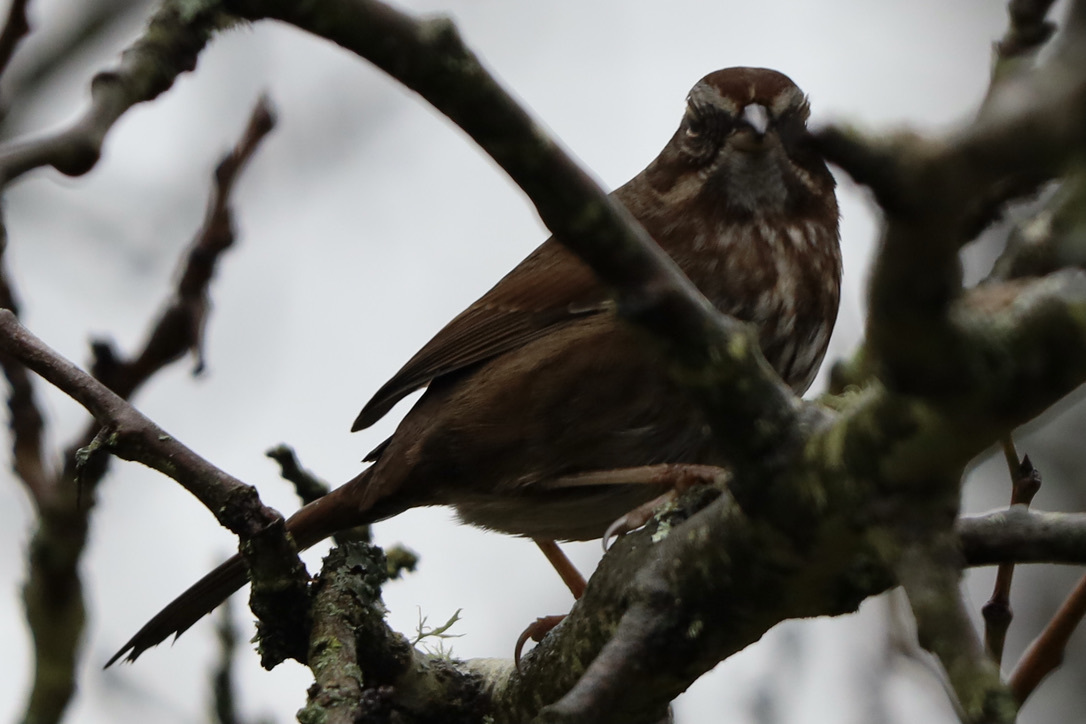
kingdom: Animalia
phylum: Chordata
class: Aves
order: Passeriformes
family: Passerellidae
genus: Melospiza
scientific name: Melospiza melodia
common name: Song sparrow
